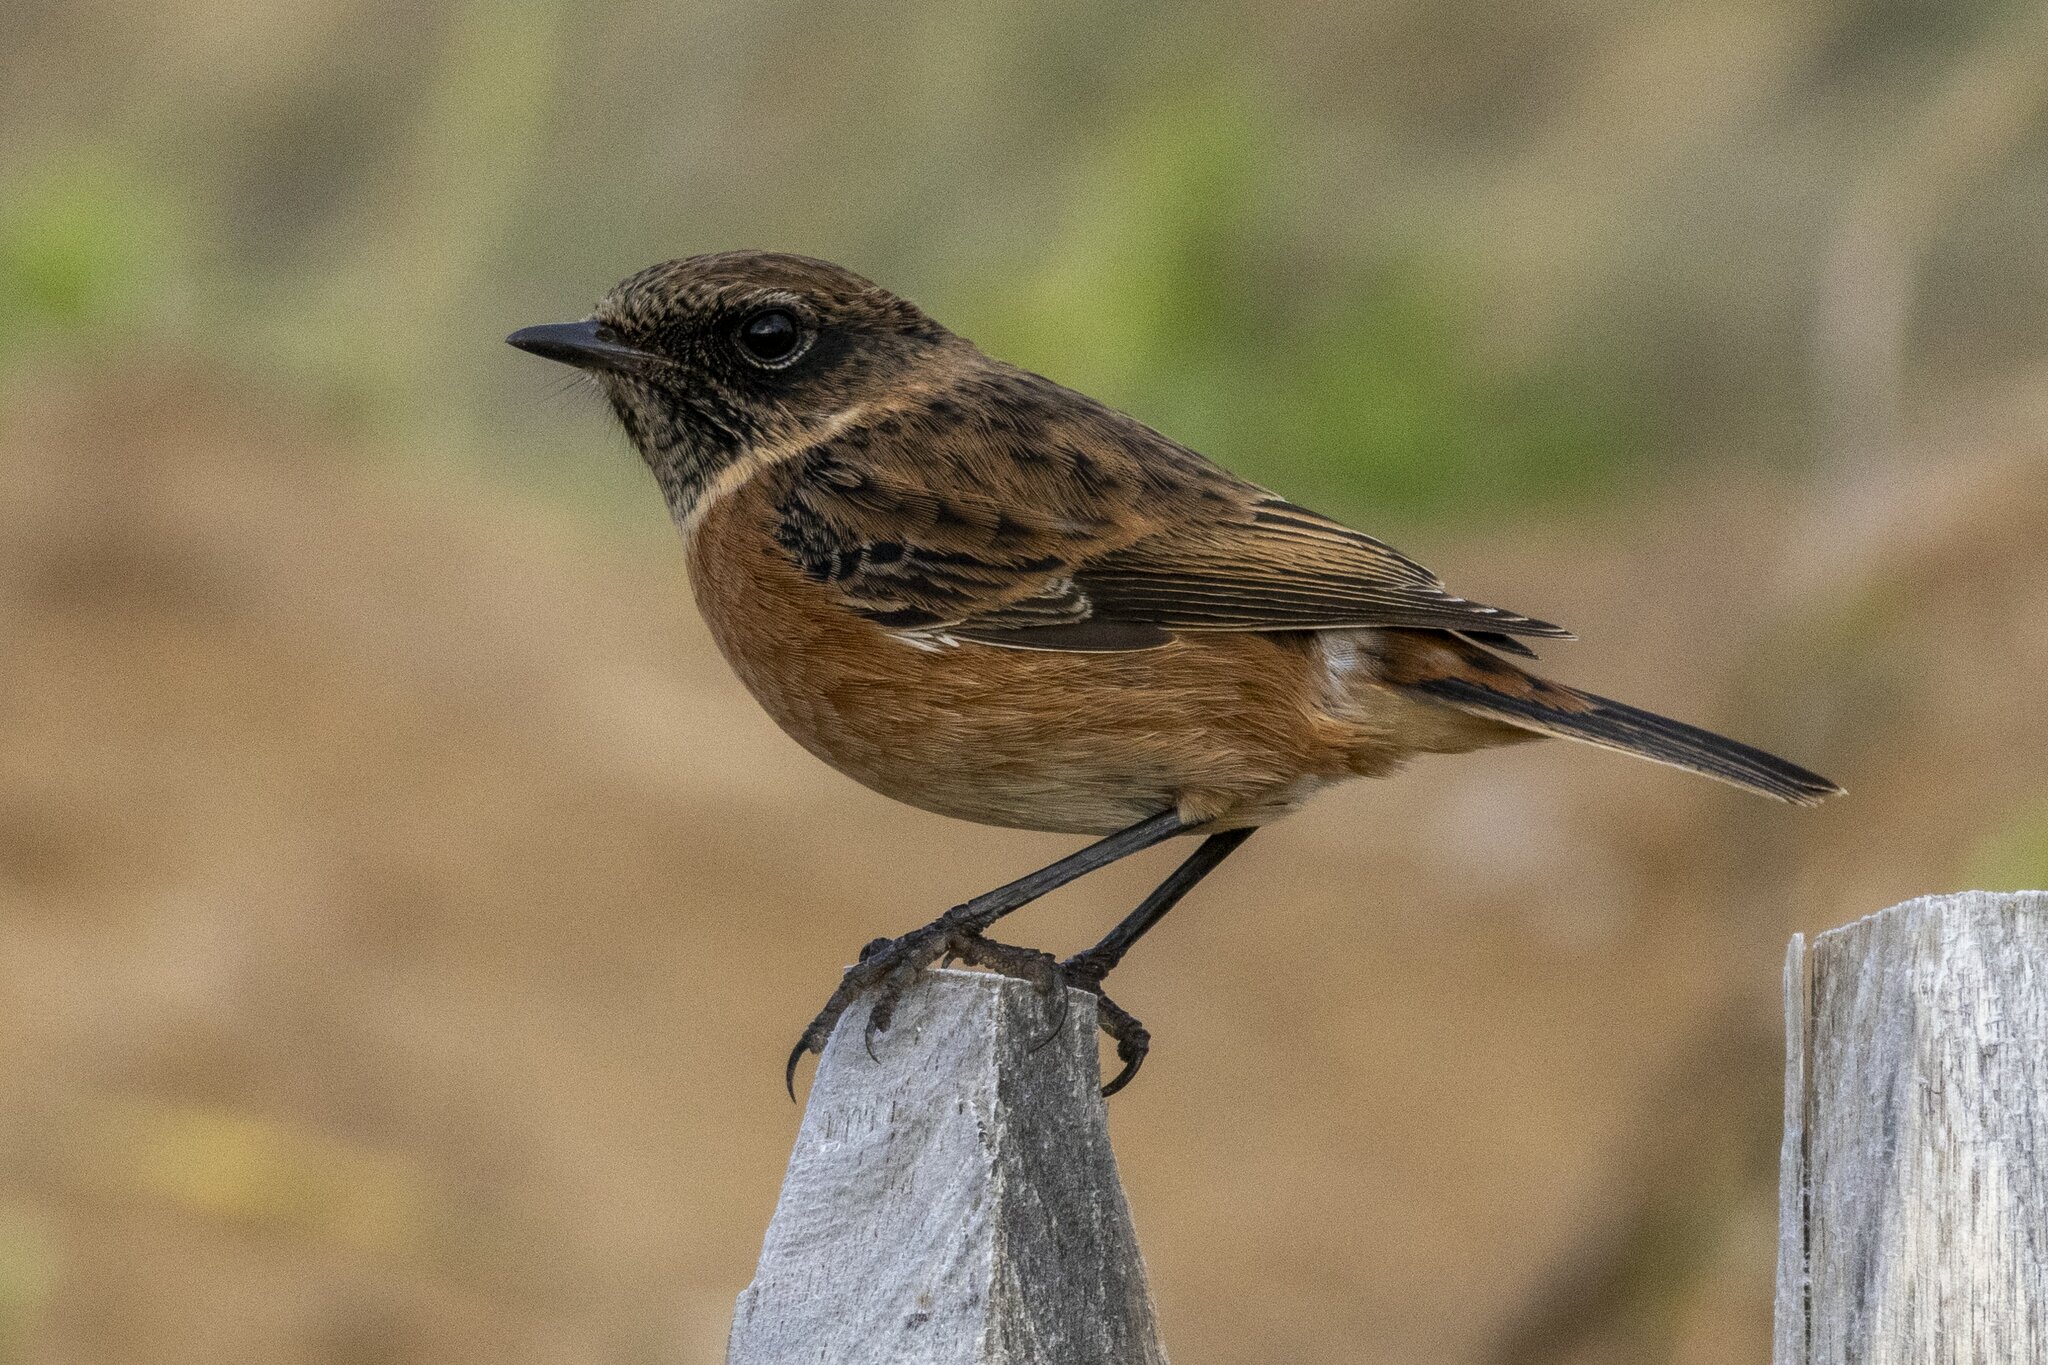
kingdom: Animalia
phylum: Chordata
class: Aves
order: Passeriformes
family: Muscicapidae
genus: Saxicola
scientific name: Saxicola rubicola
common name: European stonechat
